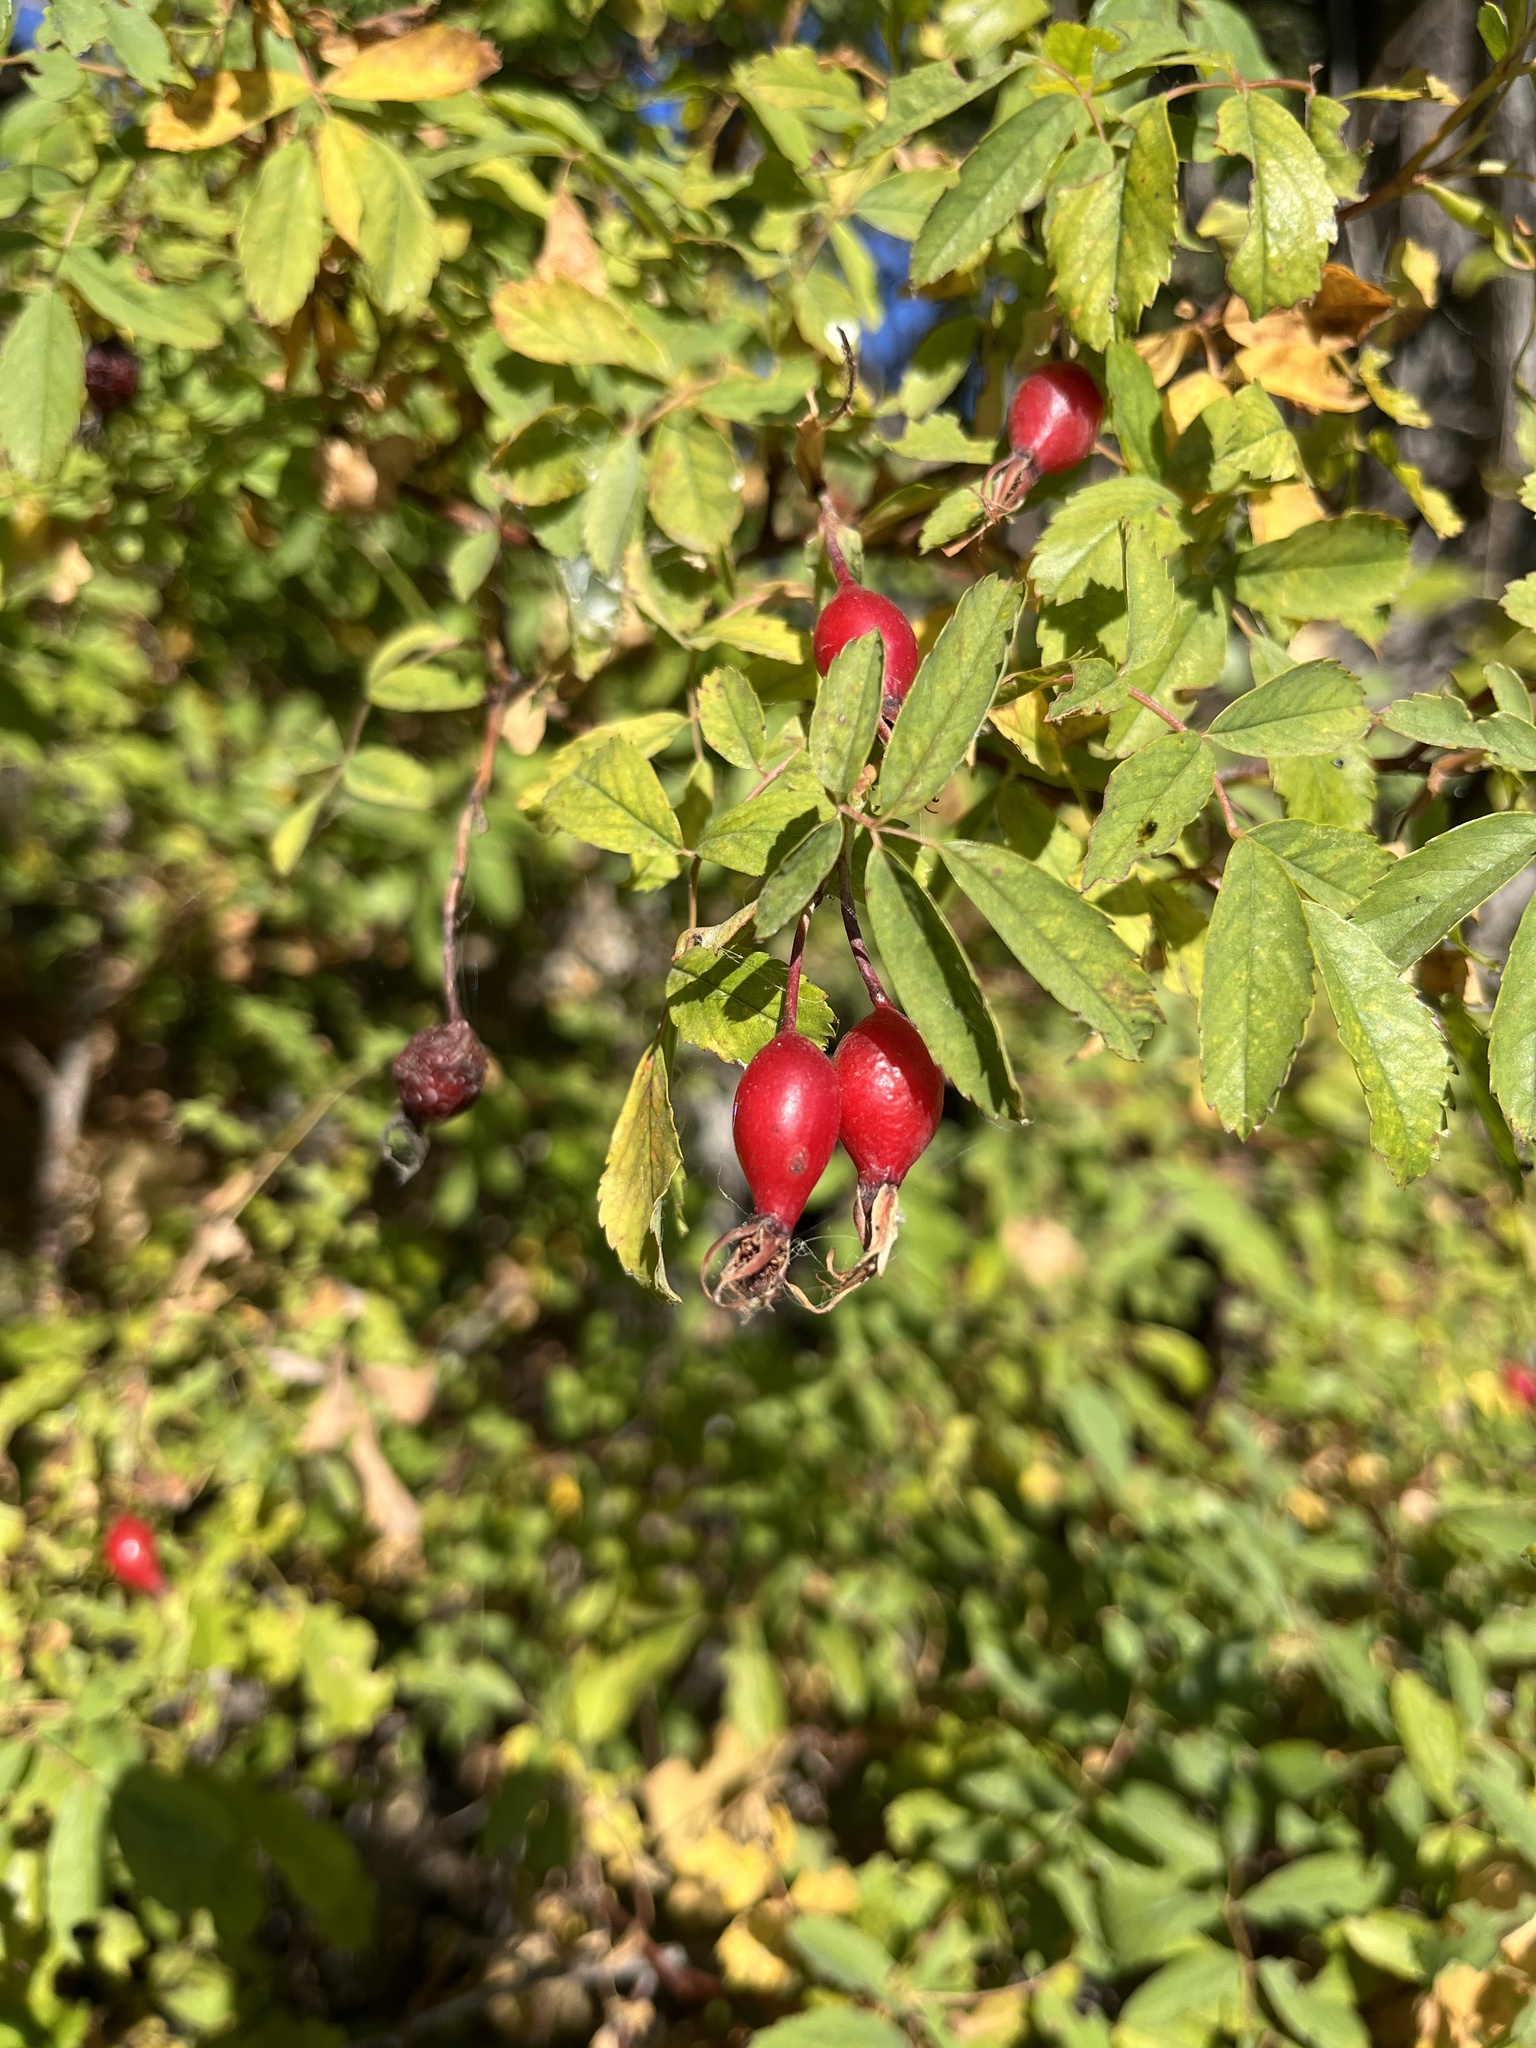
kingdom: Plantae
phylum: Tracheophyta
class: Magnoliopsida
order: Rosales
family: Rosaceae
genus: Rosa
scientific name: Rosa woodsii
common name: Woods's rose
